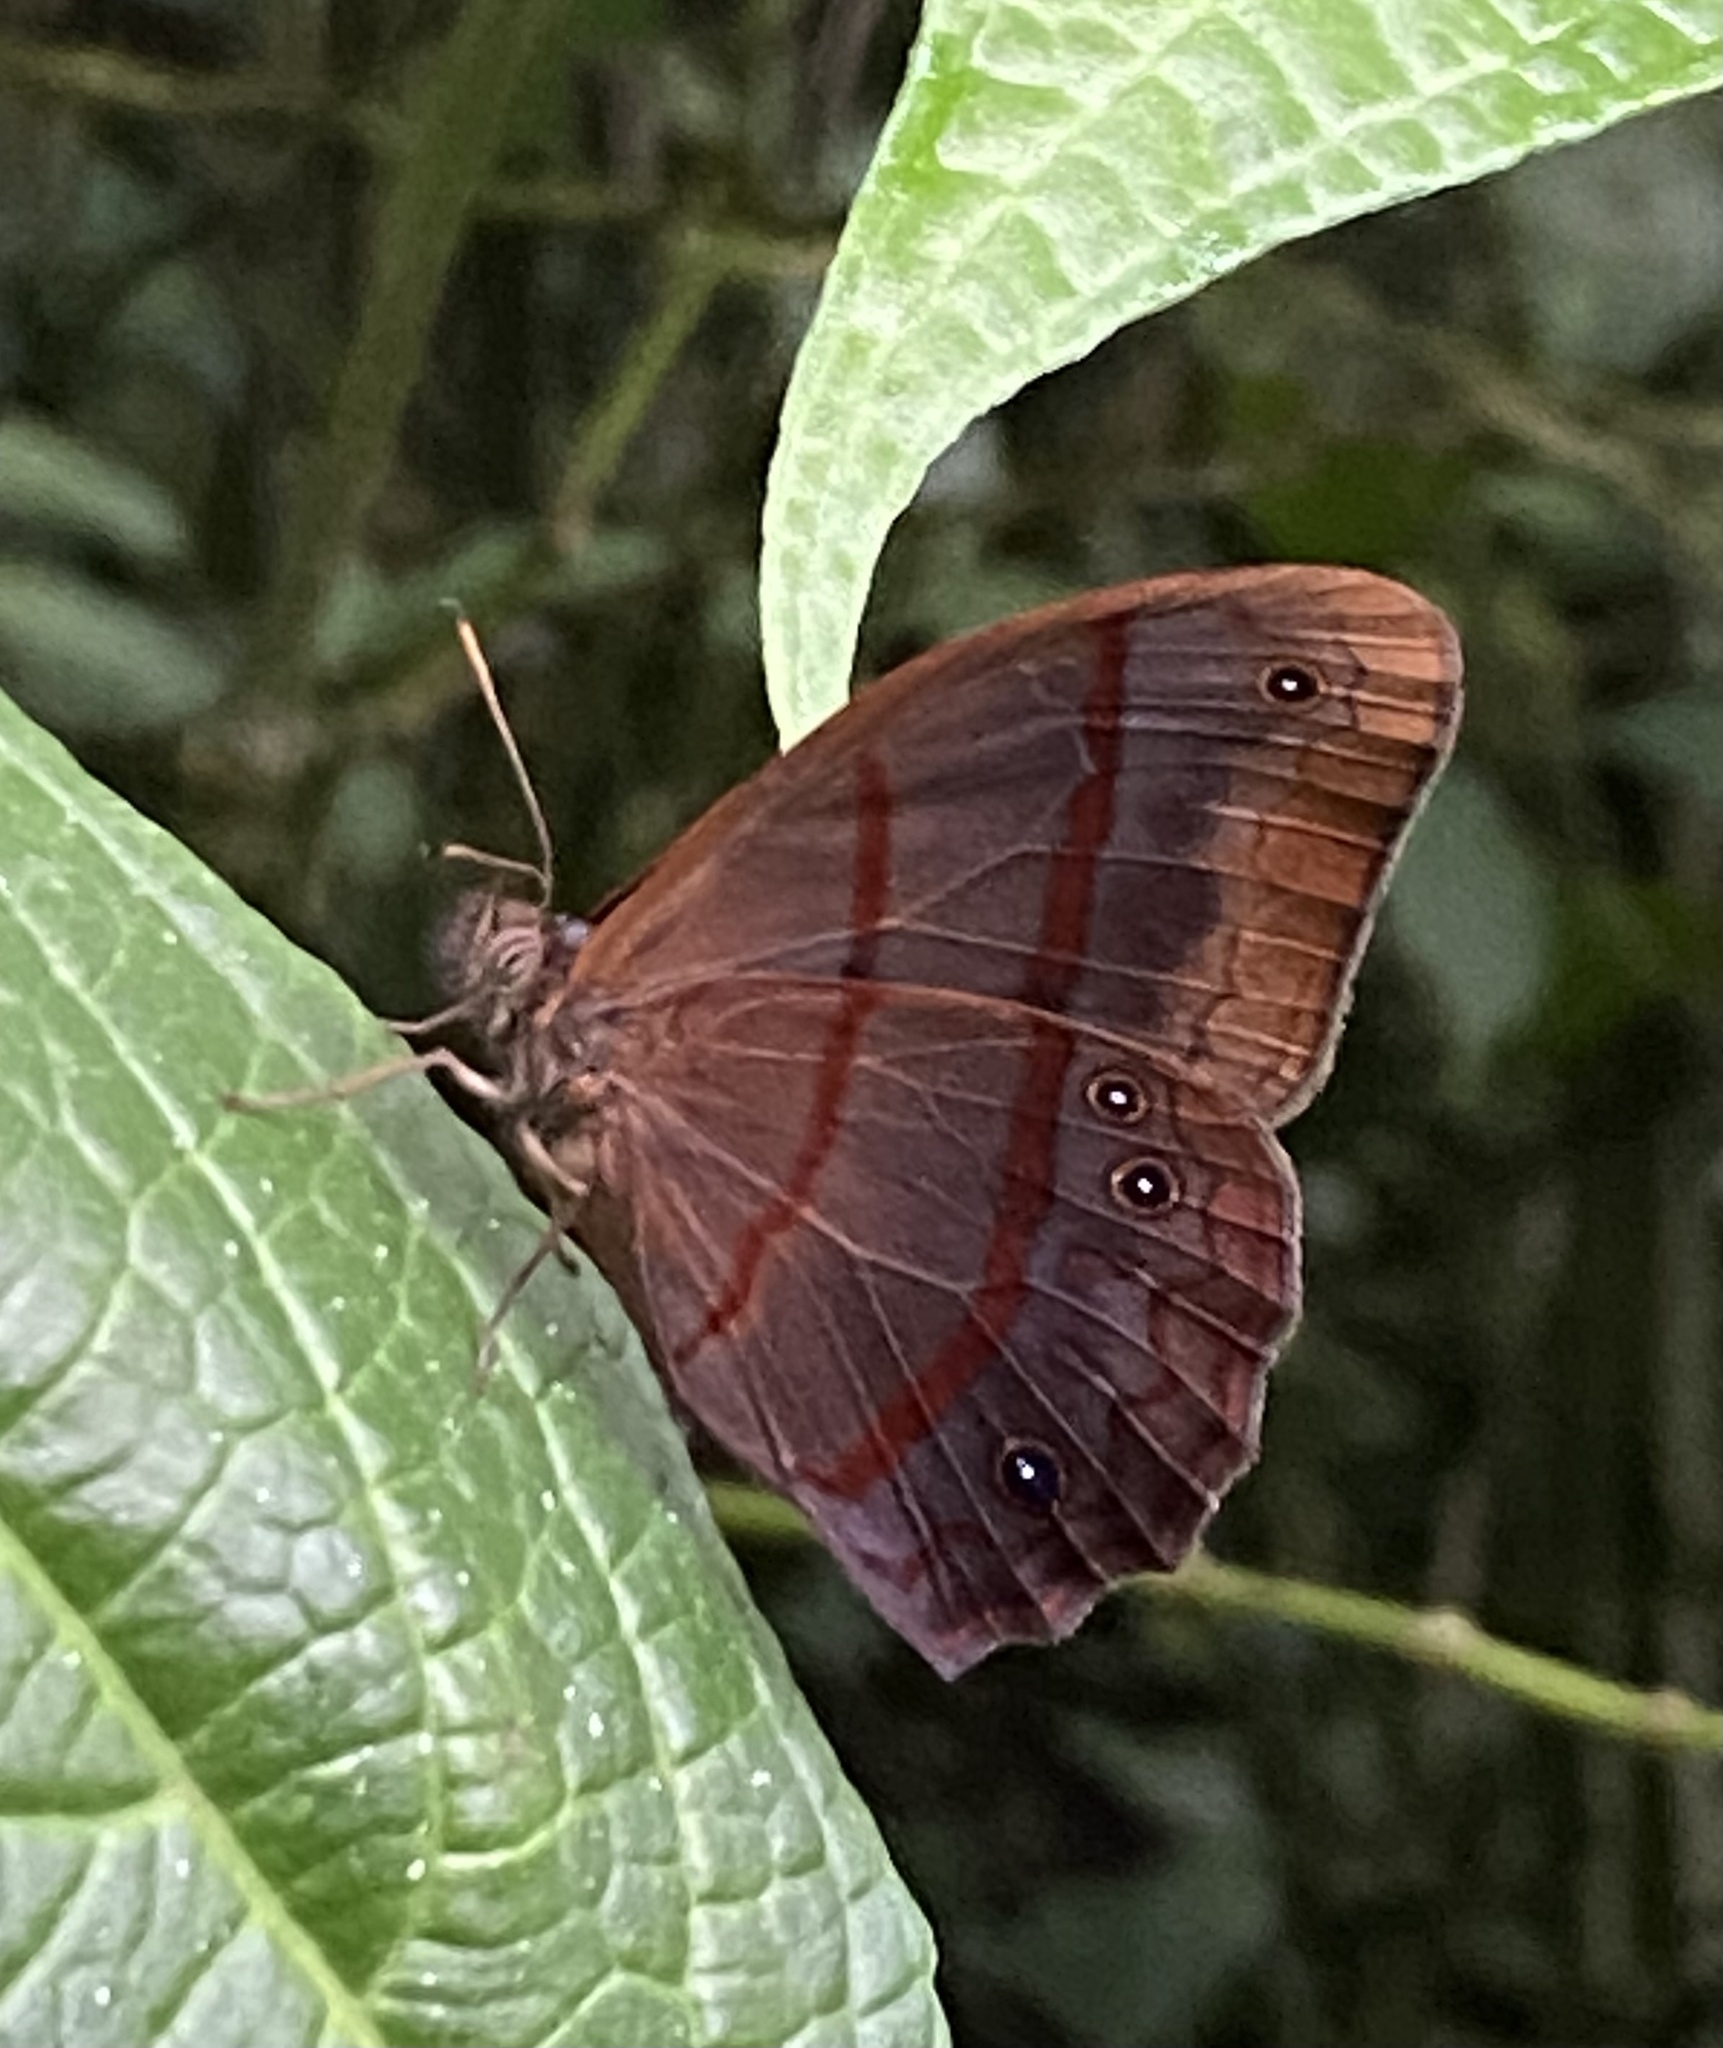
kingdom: Animalia
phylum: Arthropoda
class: Insecta
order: Lepidoptera
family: Nymphalidae
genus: Satyrotaygetis
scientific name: Satyrotaygetis satyrina
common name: Wide-bordered satyr
